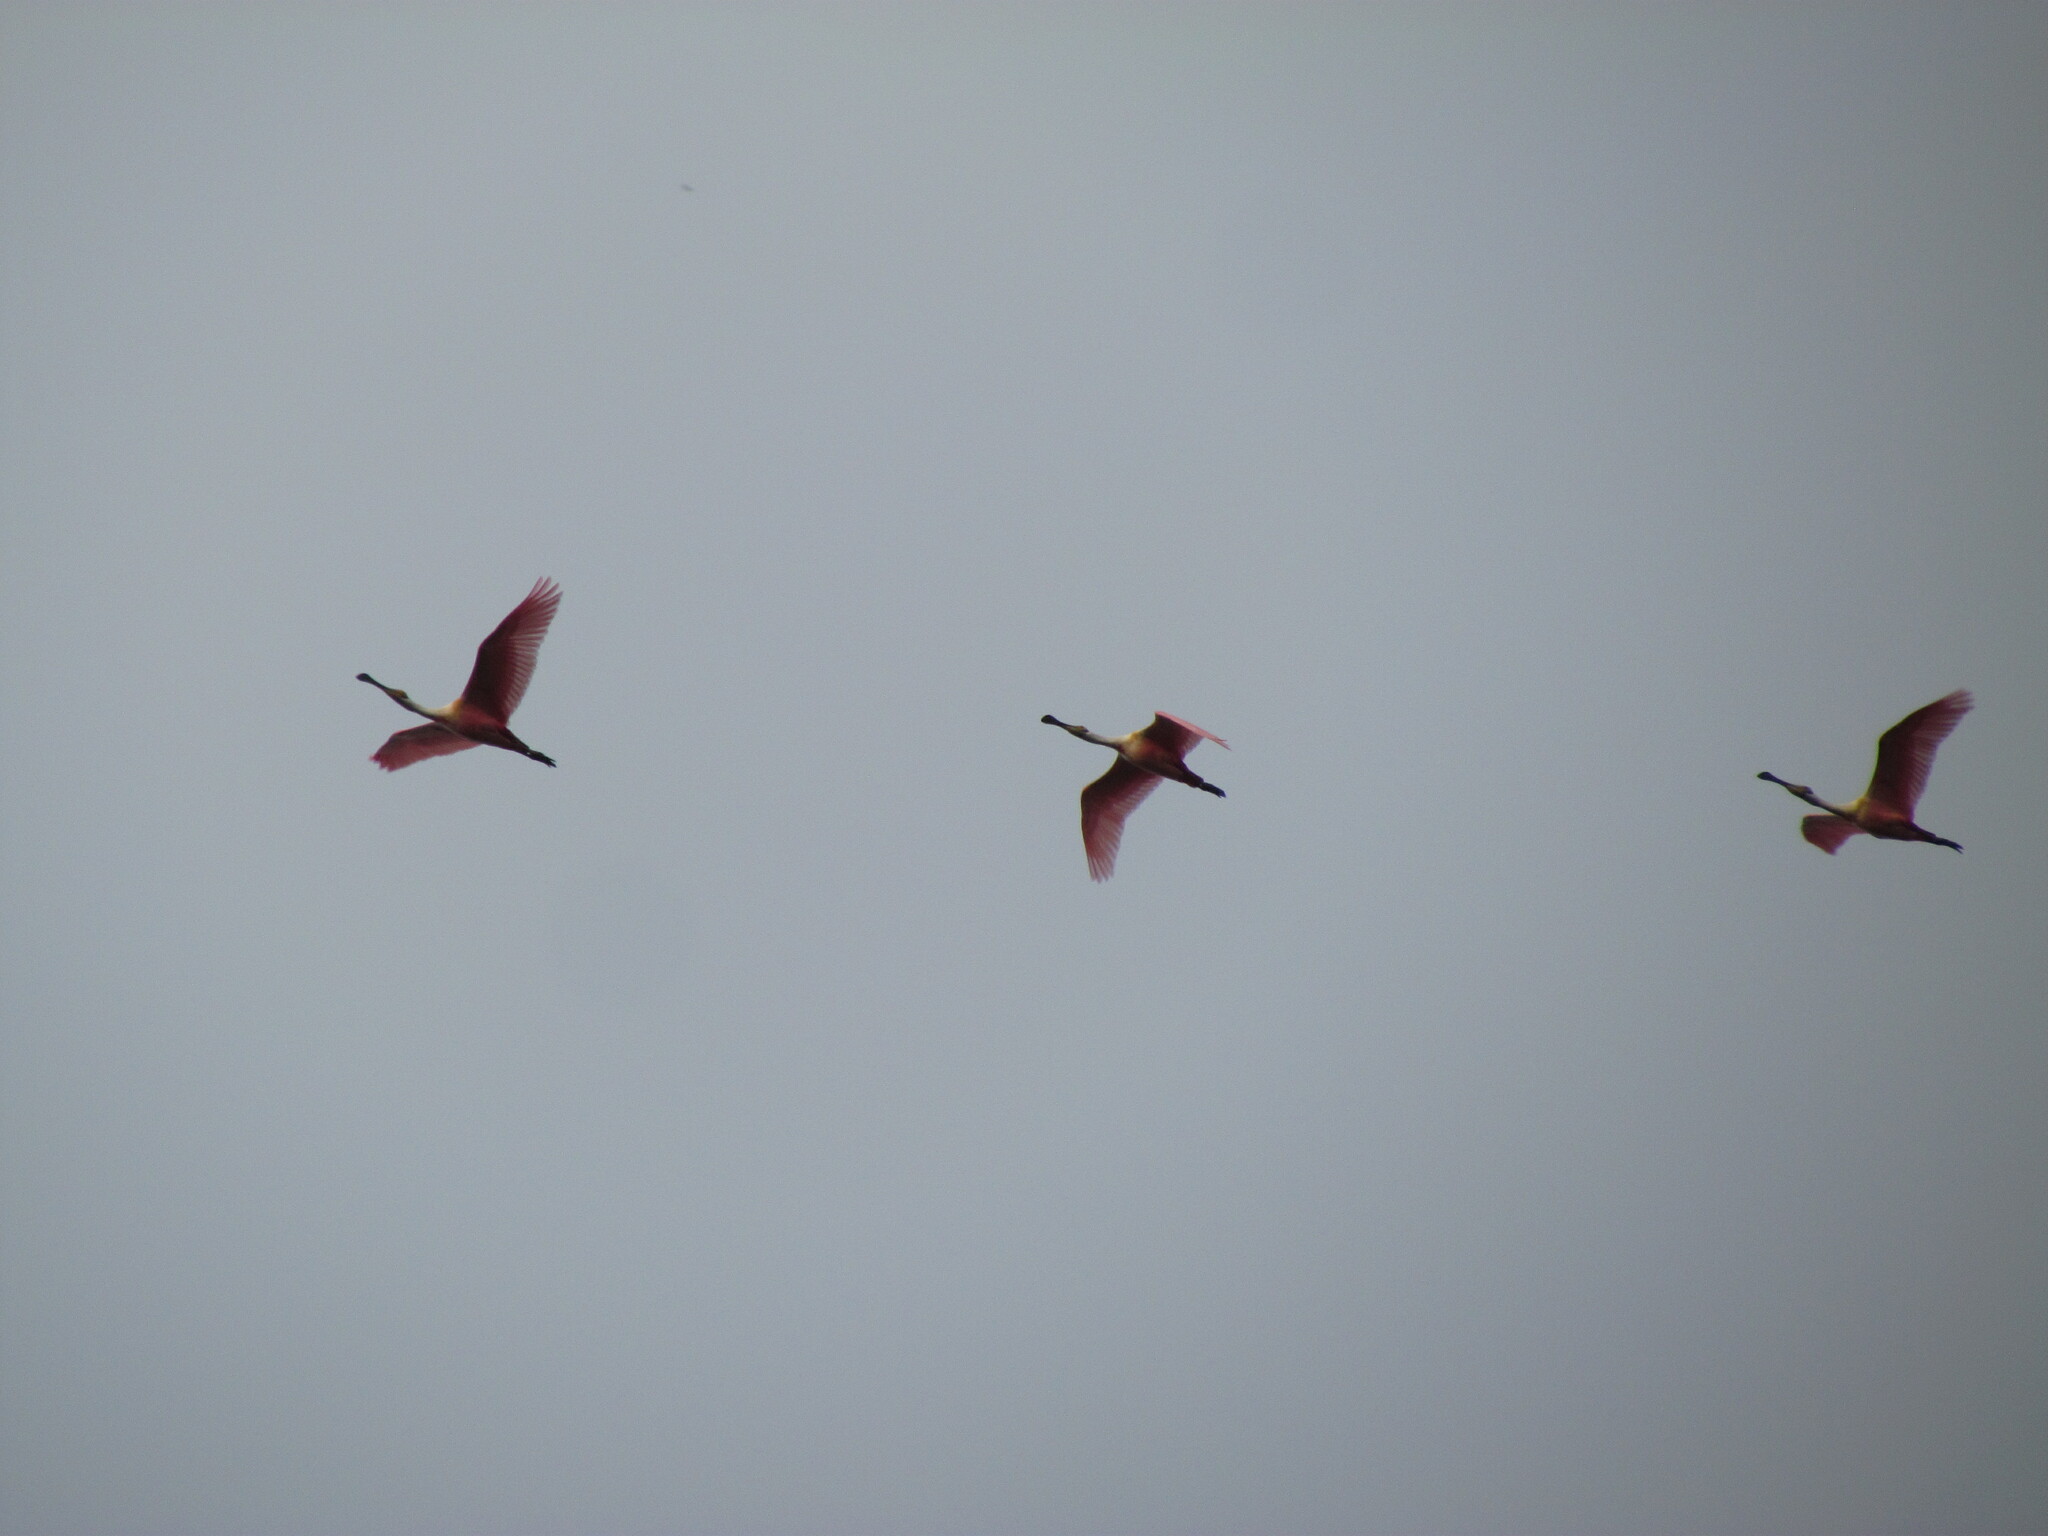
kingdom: Animalia
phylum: Chordata
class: Aves
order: Pelecaniformes
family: Threskiornithidae
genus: Platalea
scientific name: Platalea ajaja
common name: Roseate spoonbill
